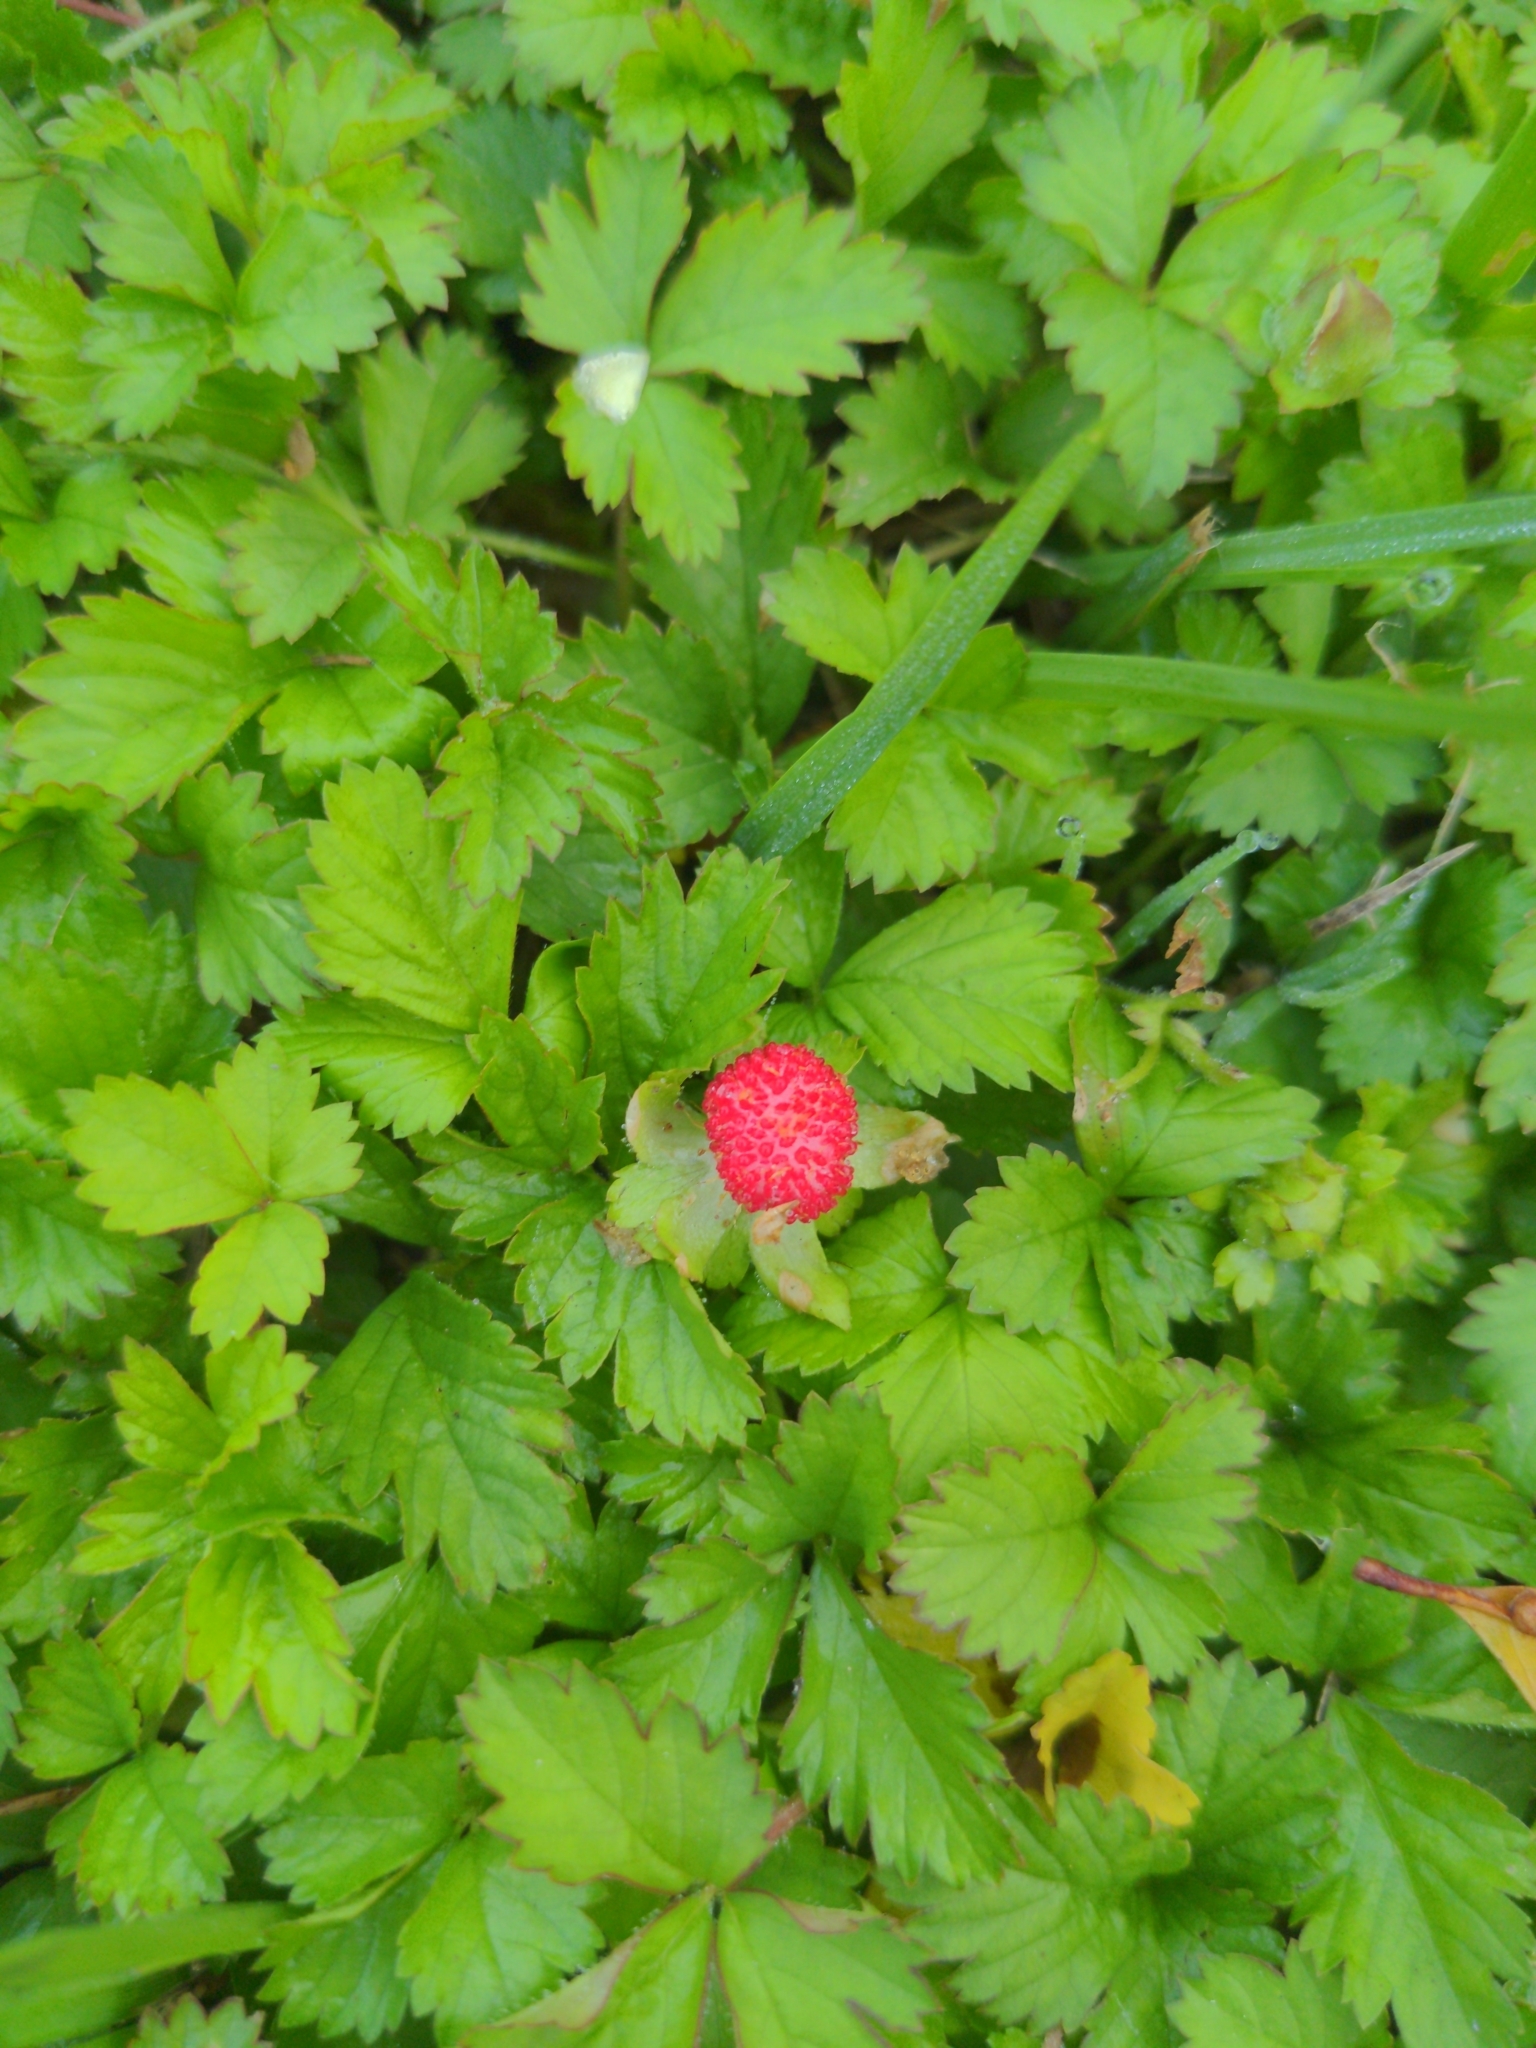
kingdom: Plantae
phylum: Tracheophyta
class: Magnoliopsida
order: Rosales
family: Rosaceae
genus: Potentilla
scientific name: Potentilla indica
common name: Yellow-flowered strawberry
